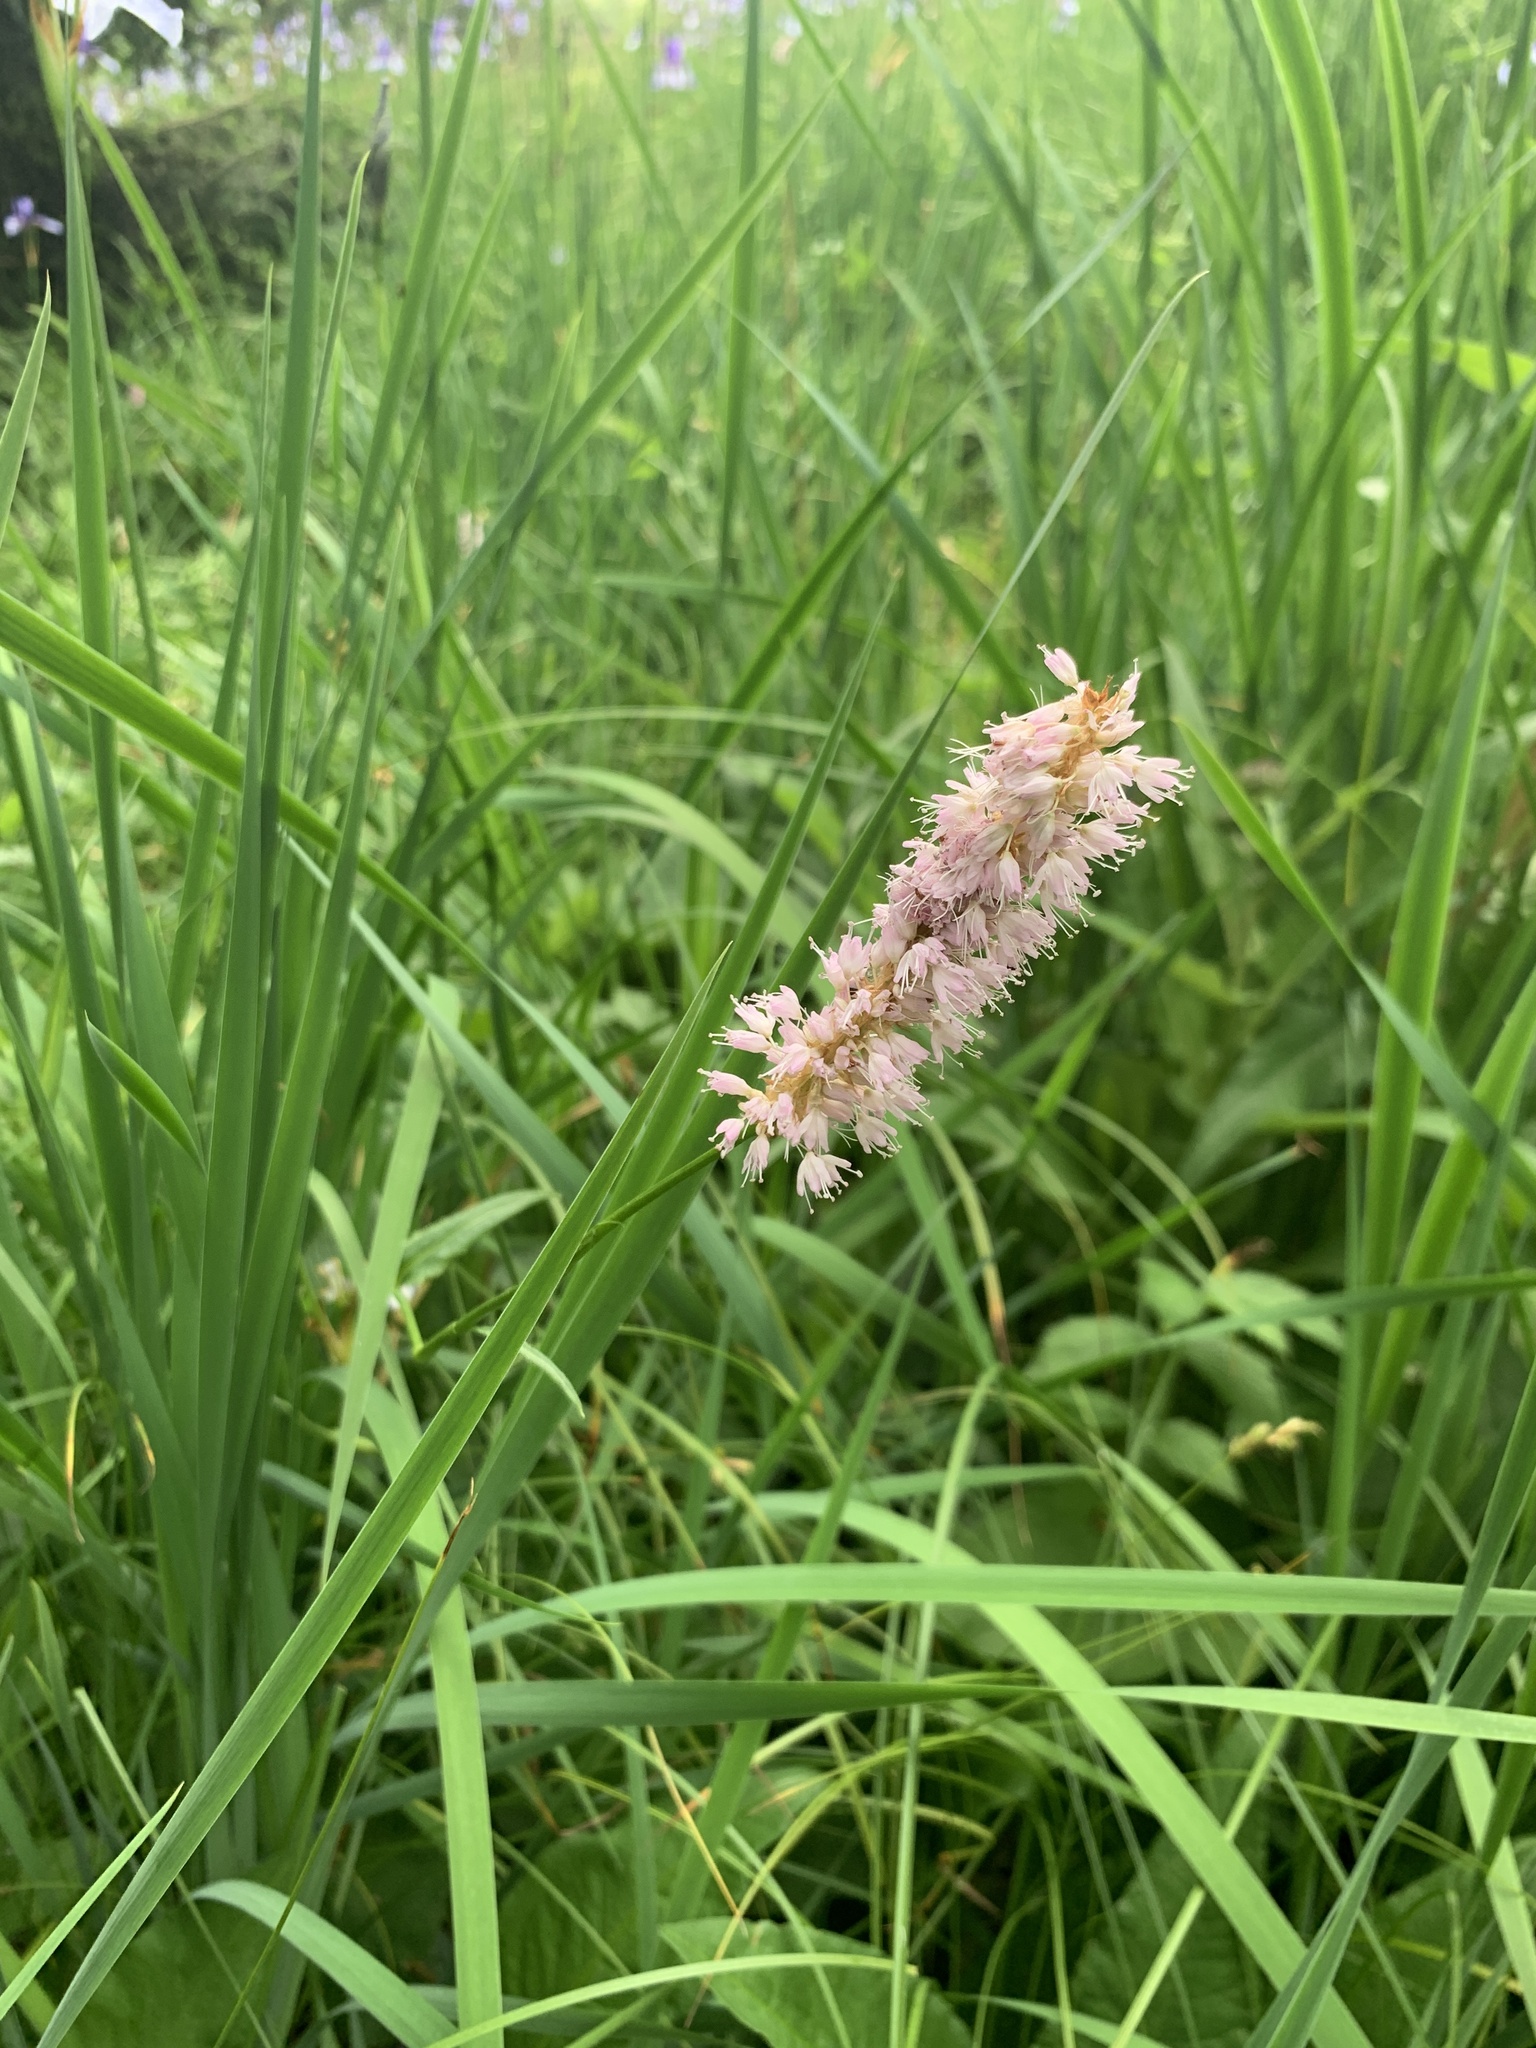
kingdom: Plantae
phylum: Tracheophyta
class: Magnoliopsida
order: Caryophyllales
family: Polygonaceae
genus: Bistorta
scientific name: Bistorta officinalis
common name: Common bistort
